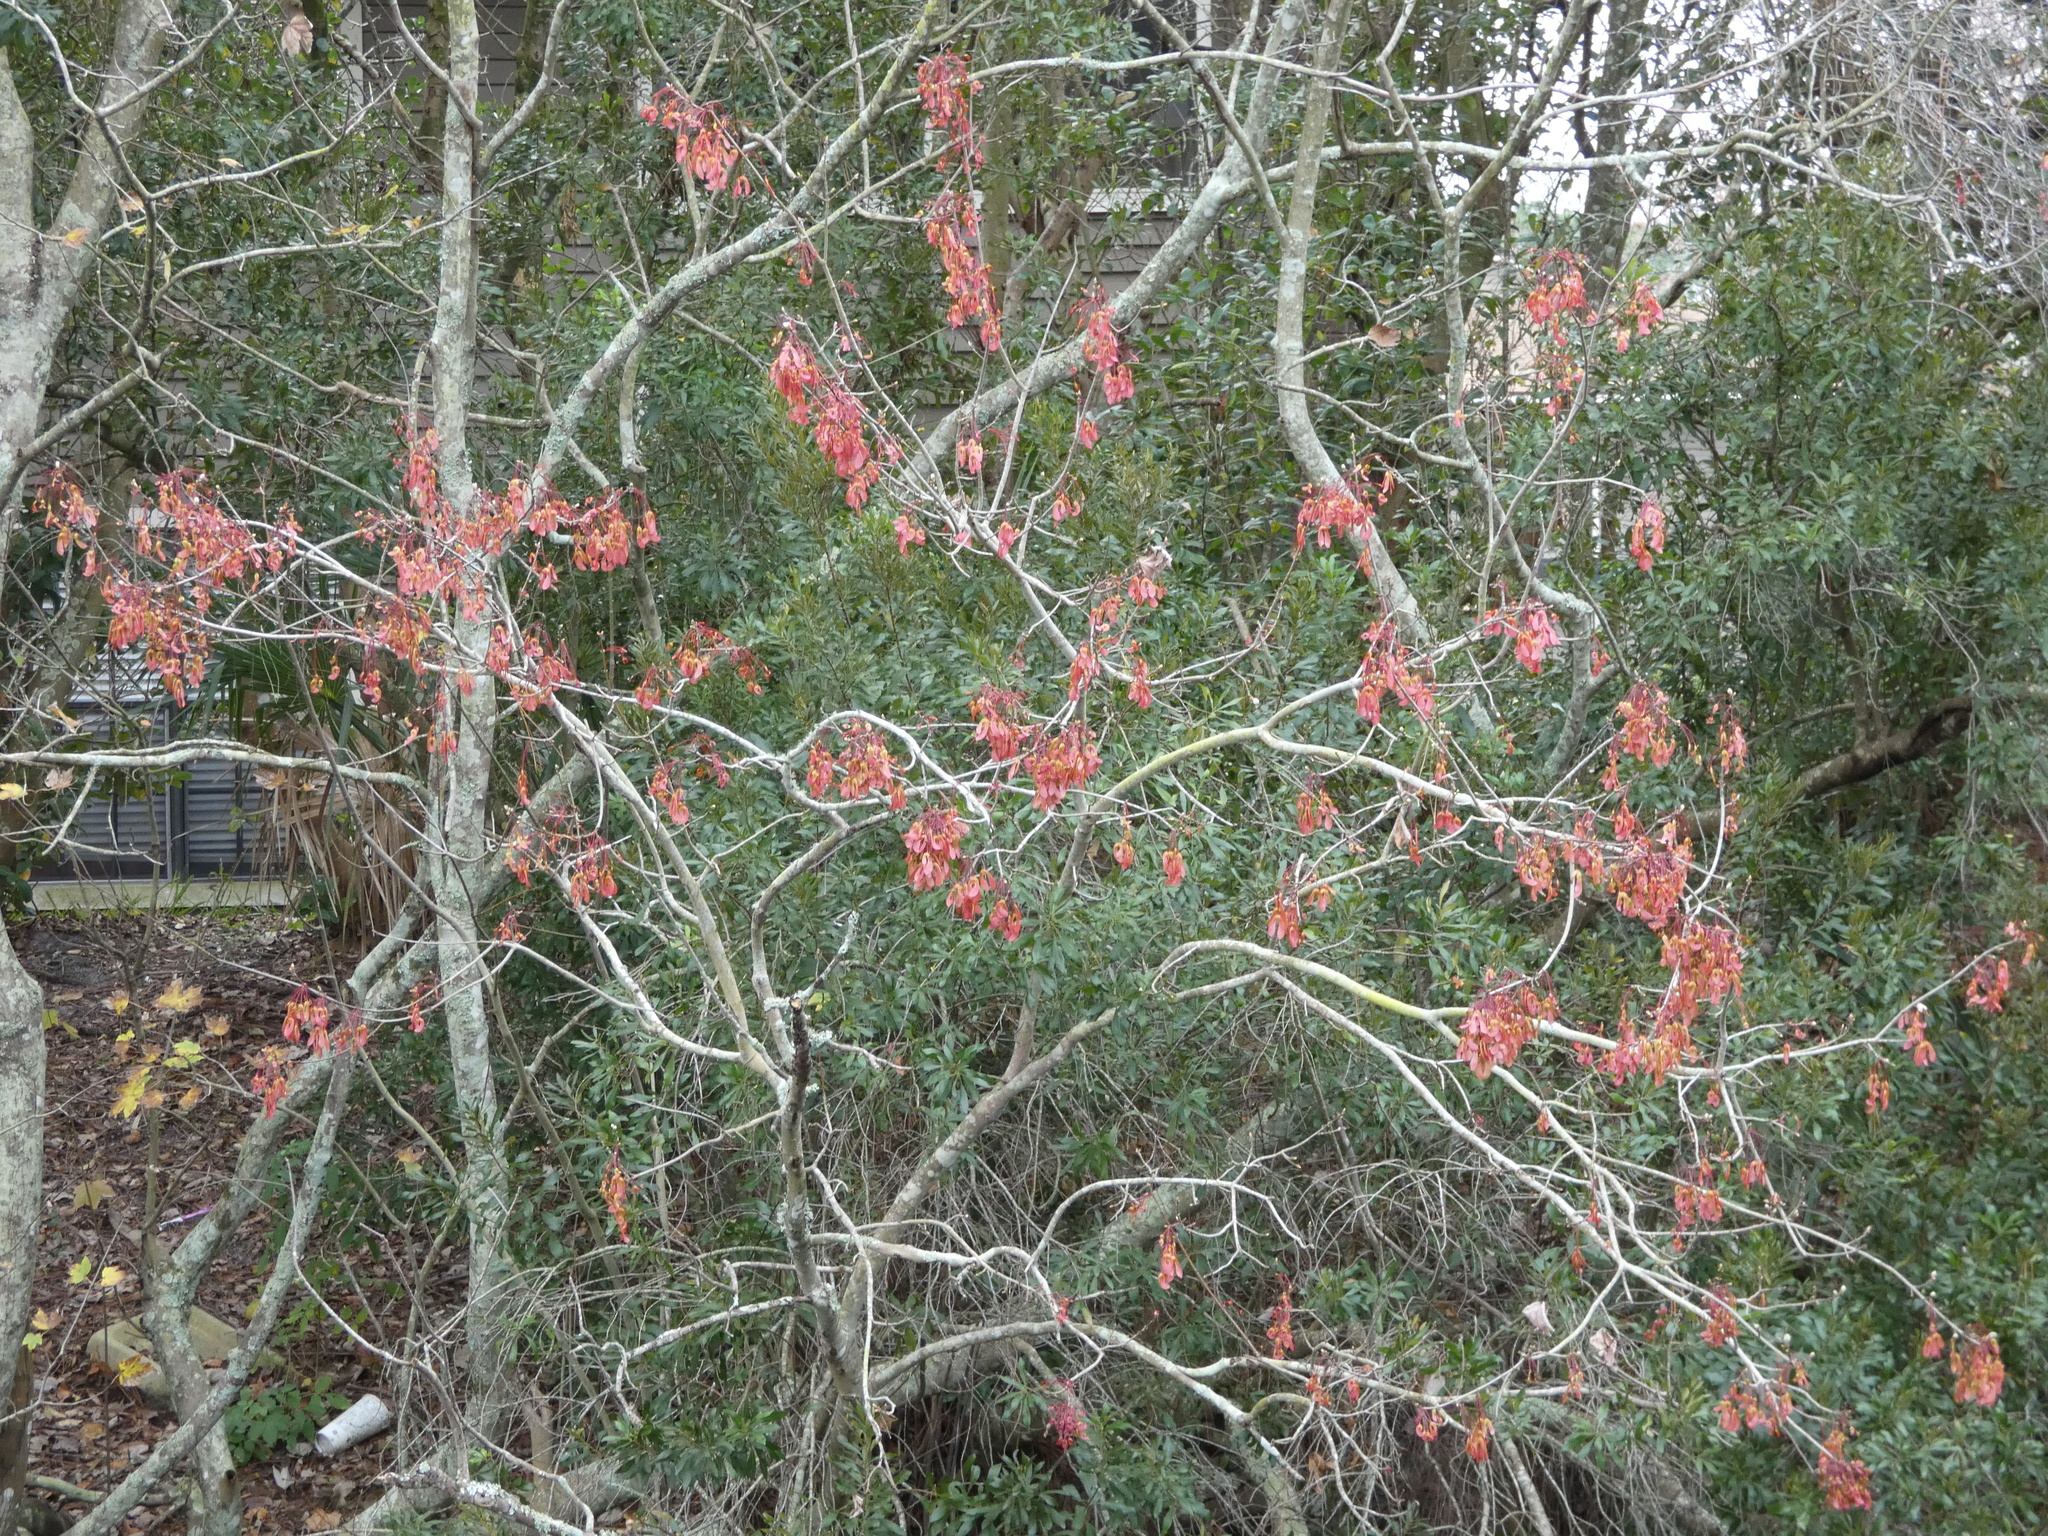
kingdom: Plantae
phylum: Tracheophyta
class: Magnoliopsida
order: Sapindales
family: Sapindaceae
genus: Acer
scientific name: Acer rubrum
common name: Red maple
